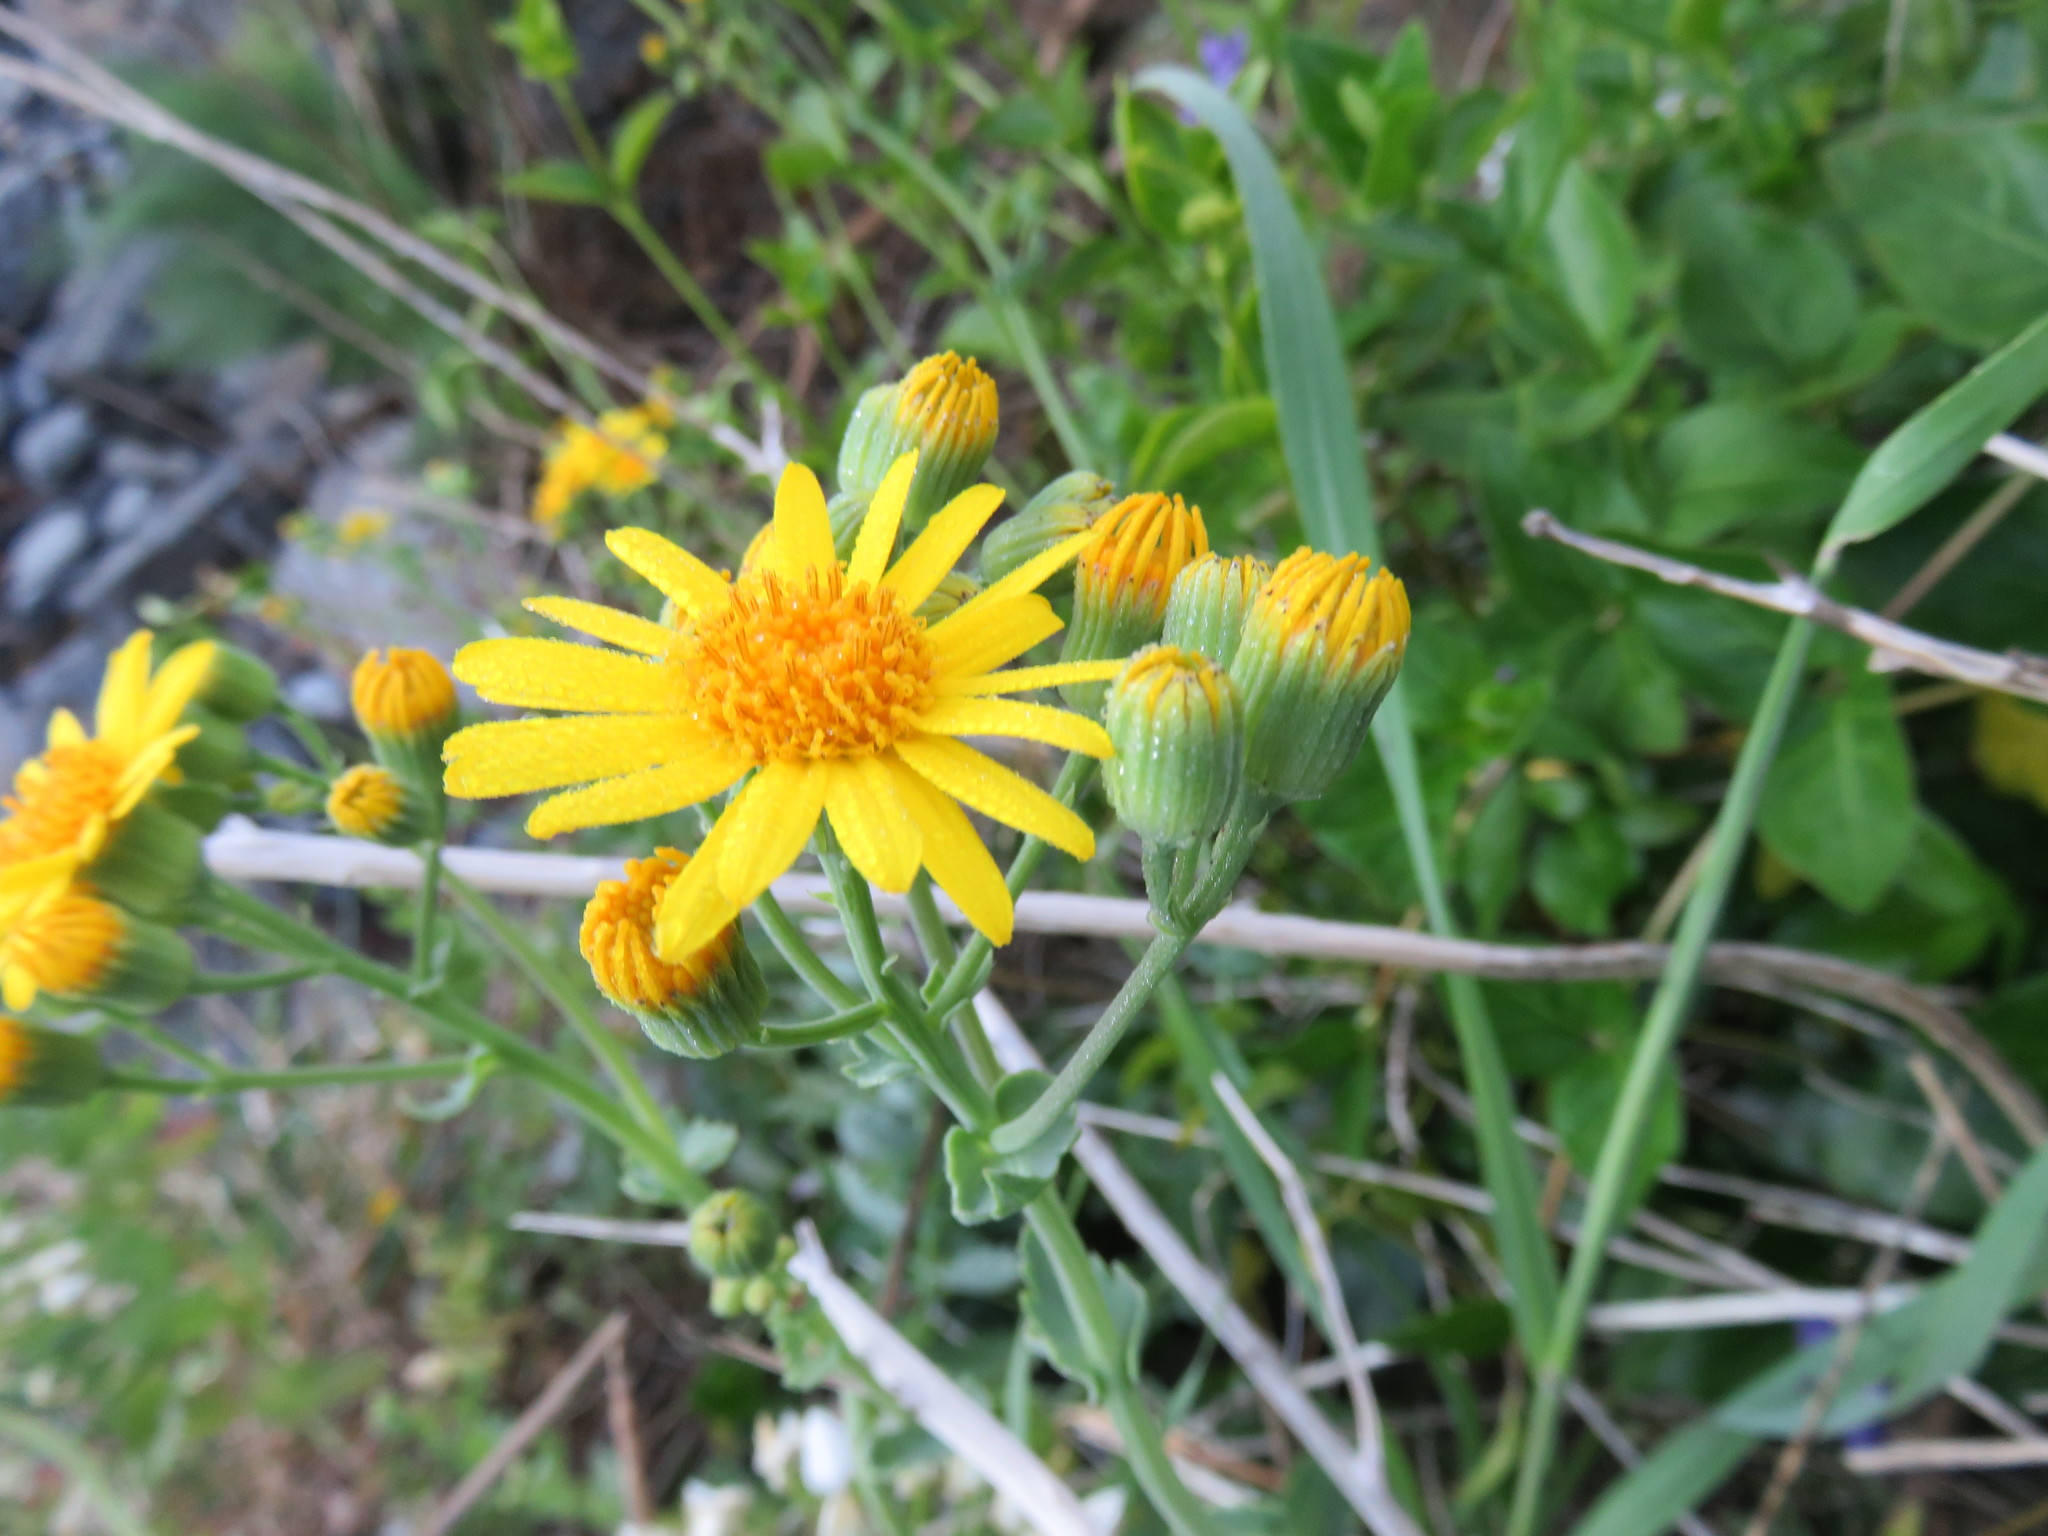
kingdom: Plantae
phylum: Tracheophyta
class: Magnoliopsida
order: Asterales
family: Asteraceae
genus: Senecio
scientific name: Senecio nigrescens
